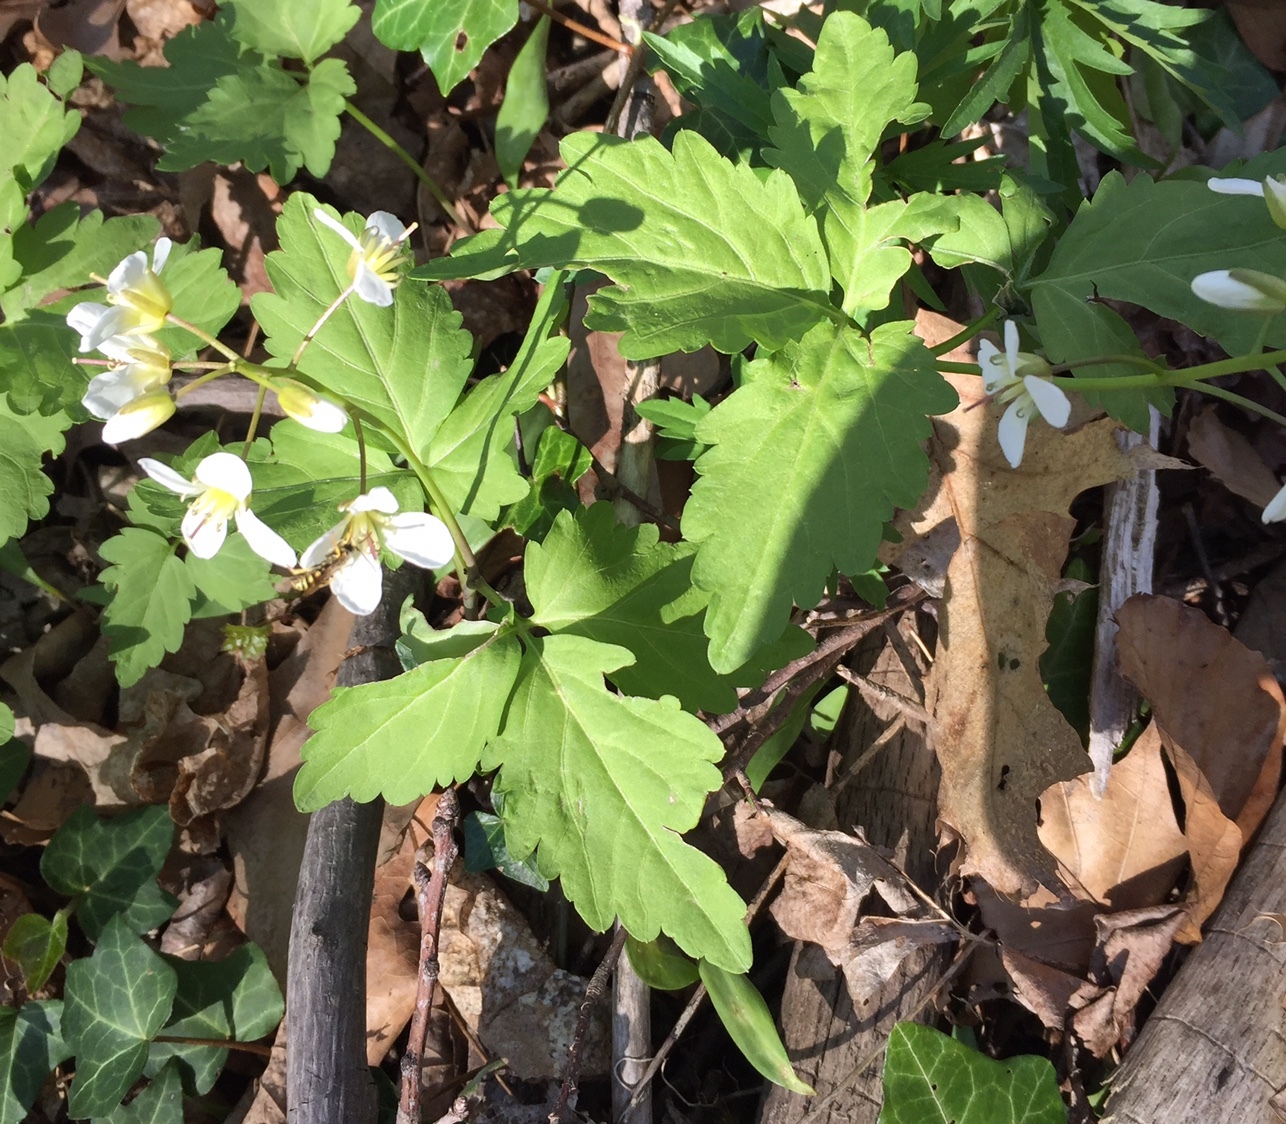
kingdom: Plantae
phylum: Tracheophyta
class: Magnoliopsida
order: Brassicales
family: Brassicaceae
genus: Cardamine
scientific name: Cardamine diphylla
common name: Broad-leaved toothwort
